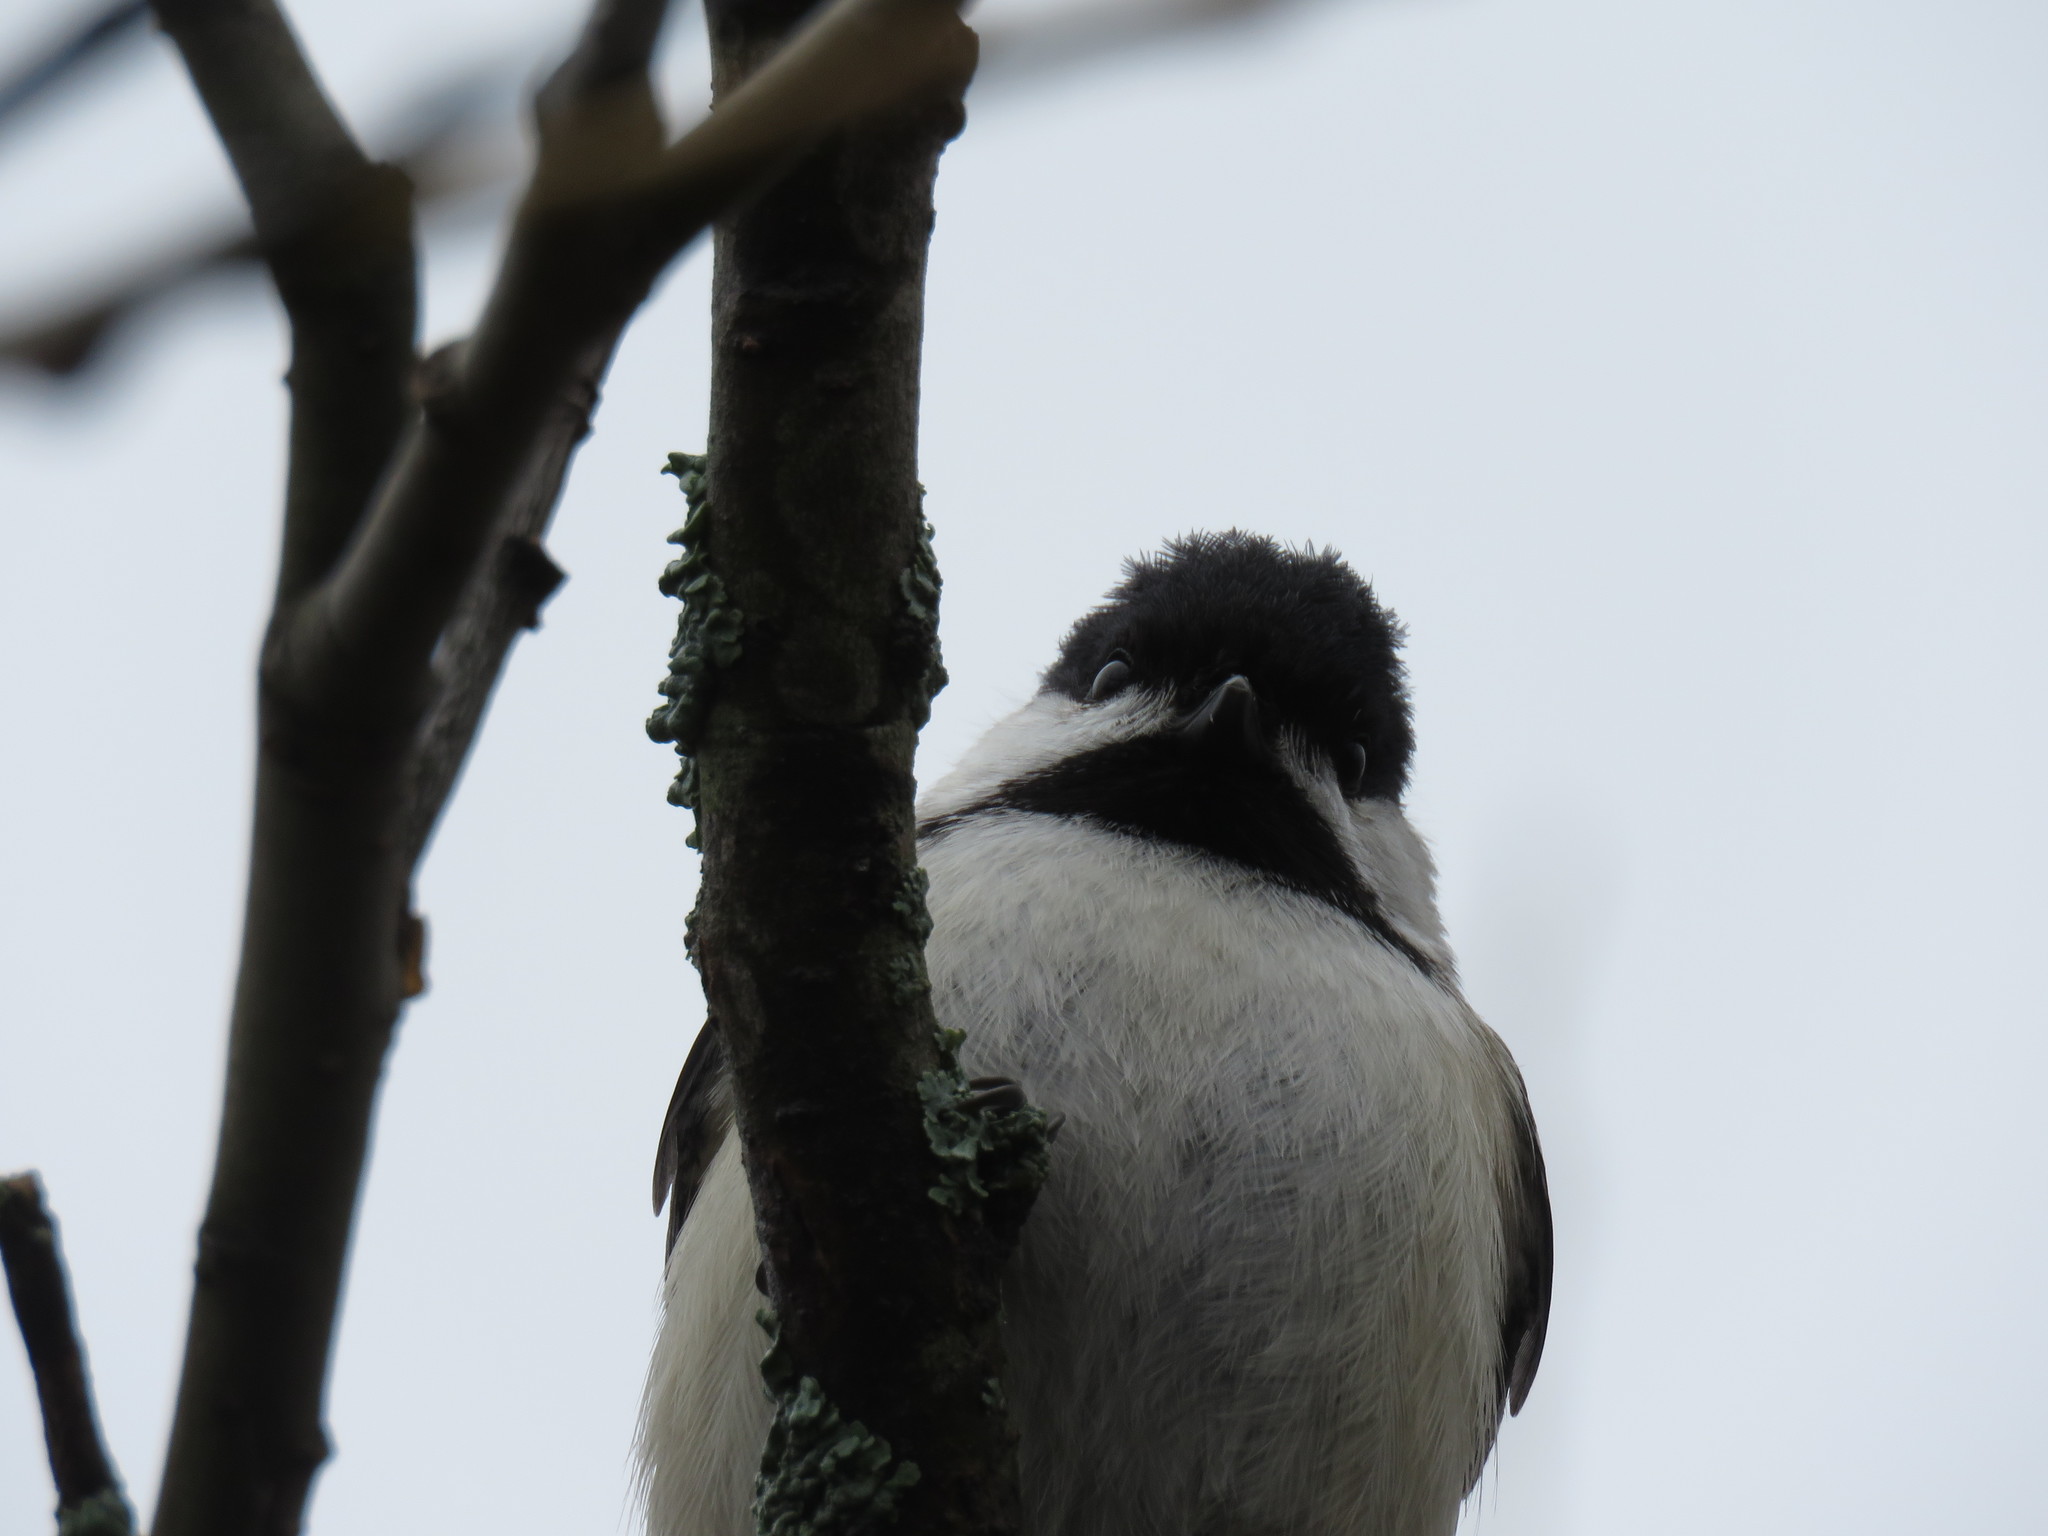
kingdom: Animalia
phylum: Chordata
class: Aves
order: Passeriformes
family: Paridae
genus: Poecile
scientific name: Poecile atricapillus
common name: Black-capped chickadee
